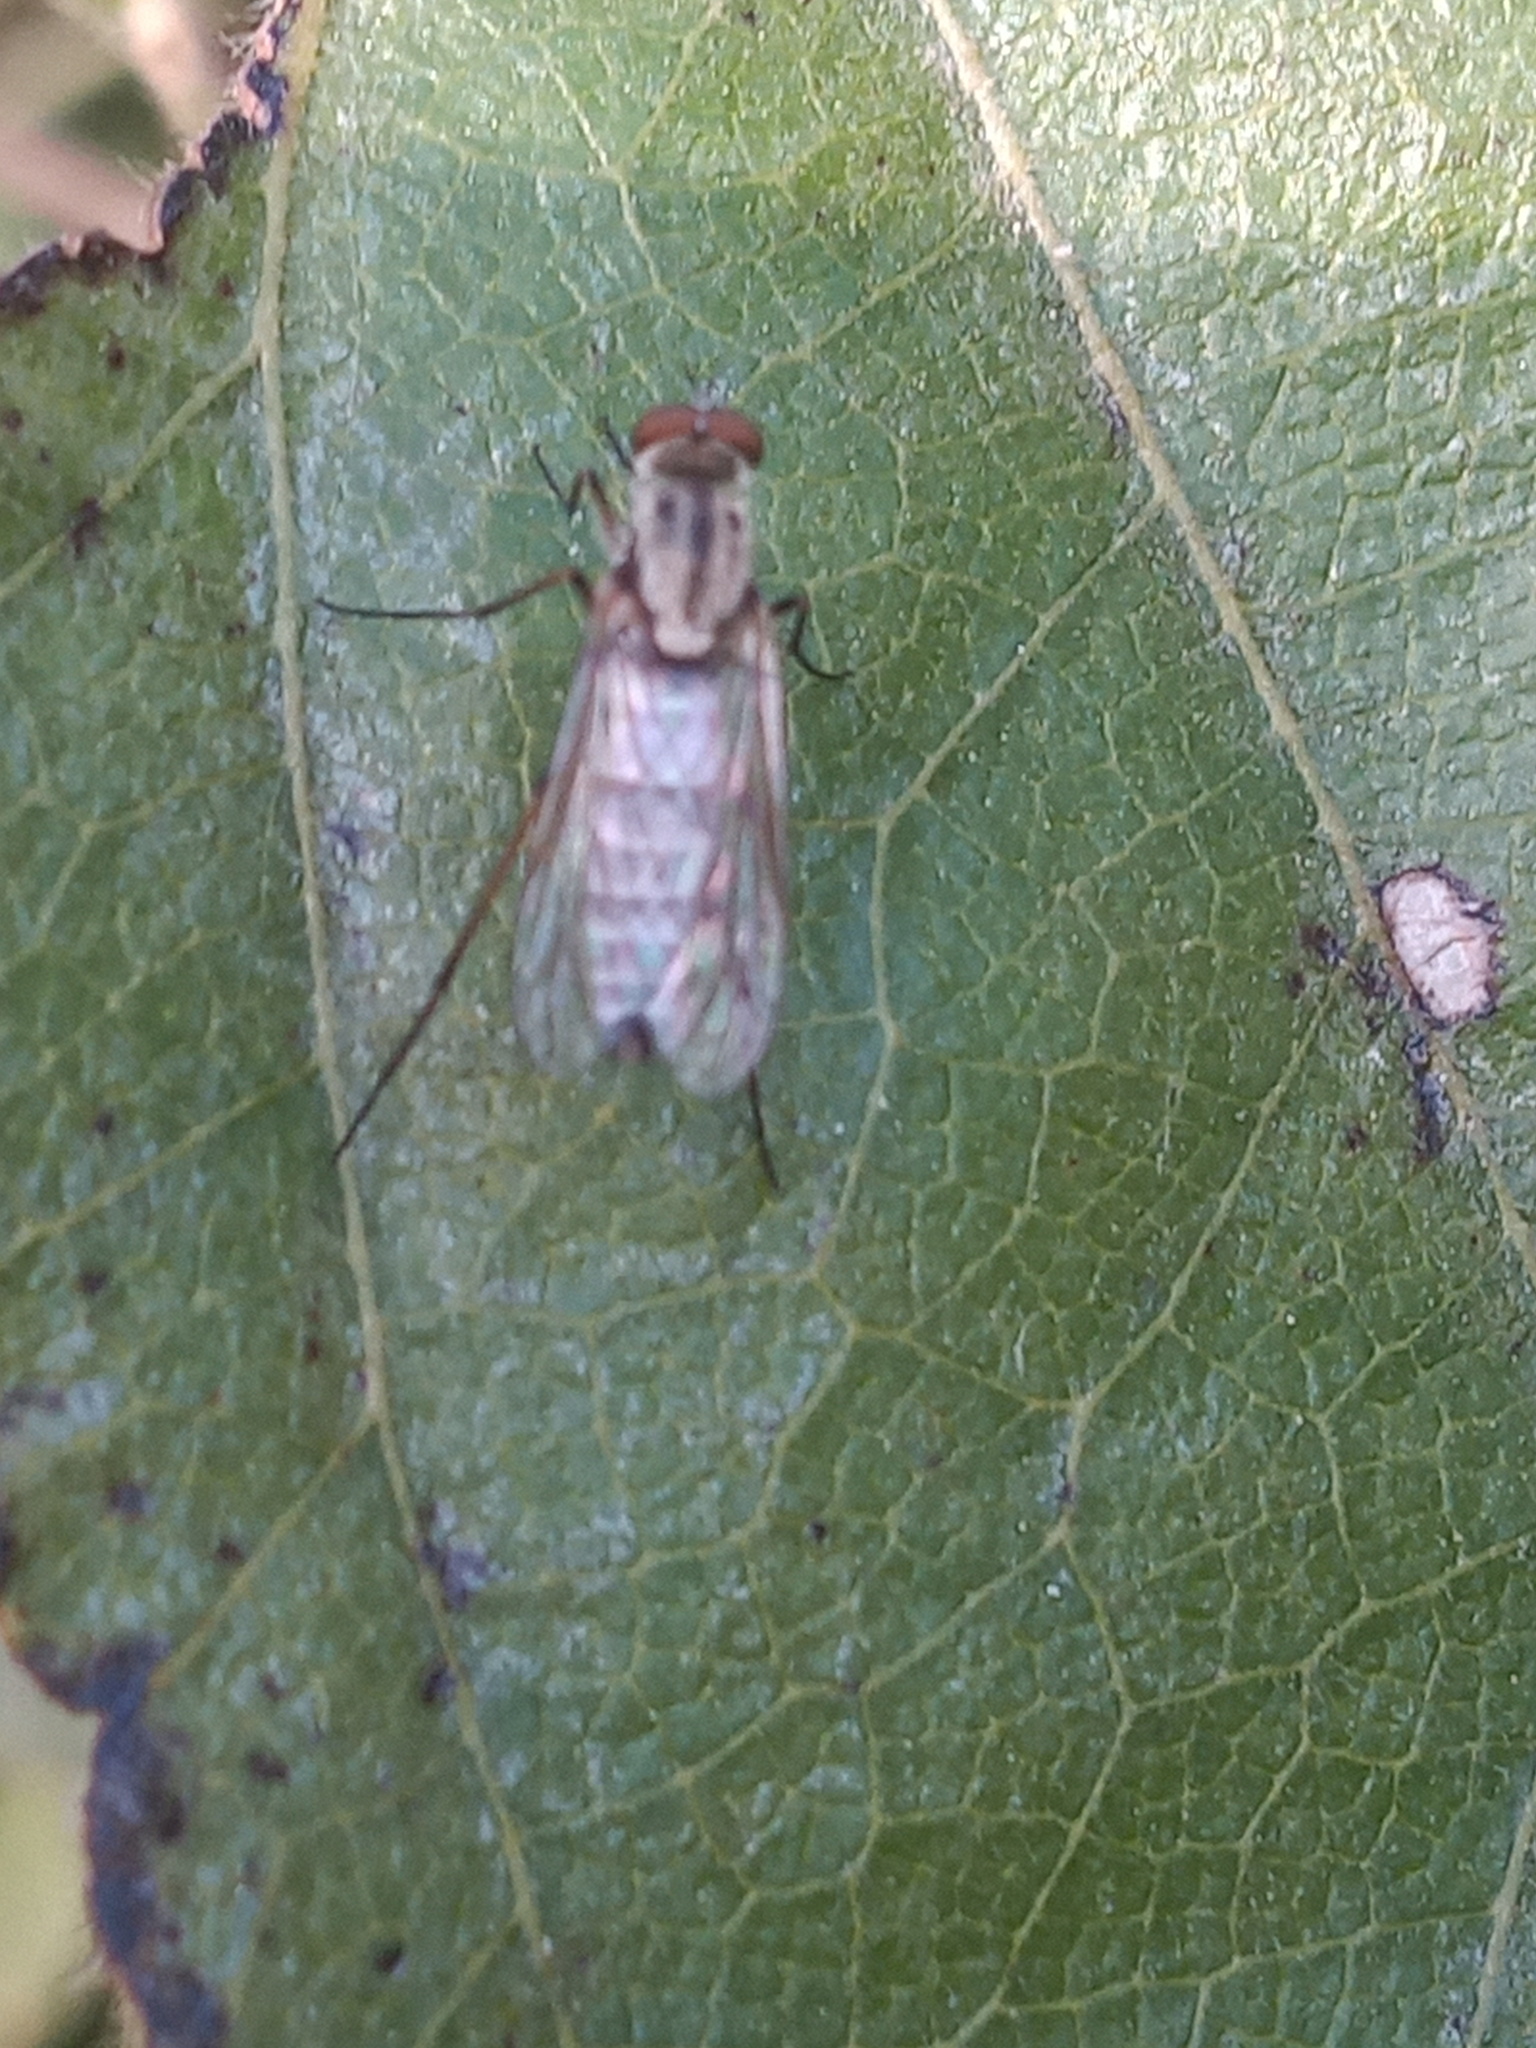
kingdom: Animalia
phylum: Arthropoda
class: Insecta
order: Diptera
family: Therevidae
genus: Penniverpa
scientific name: Penniverpa epidema
